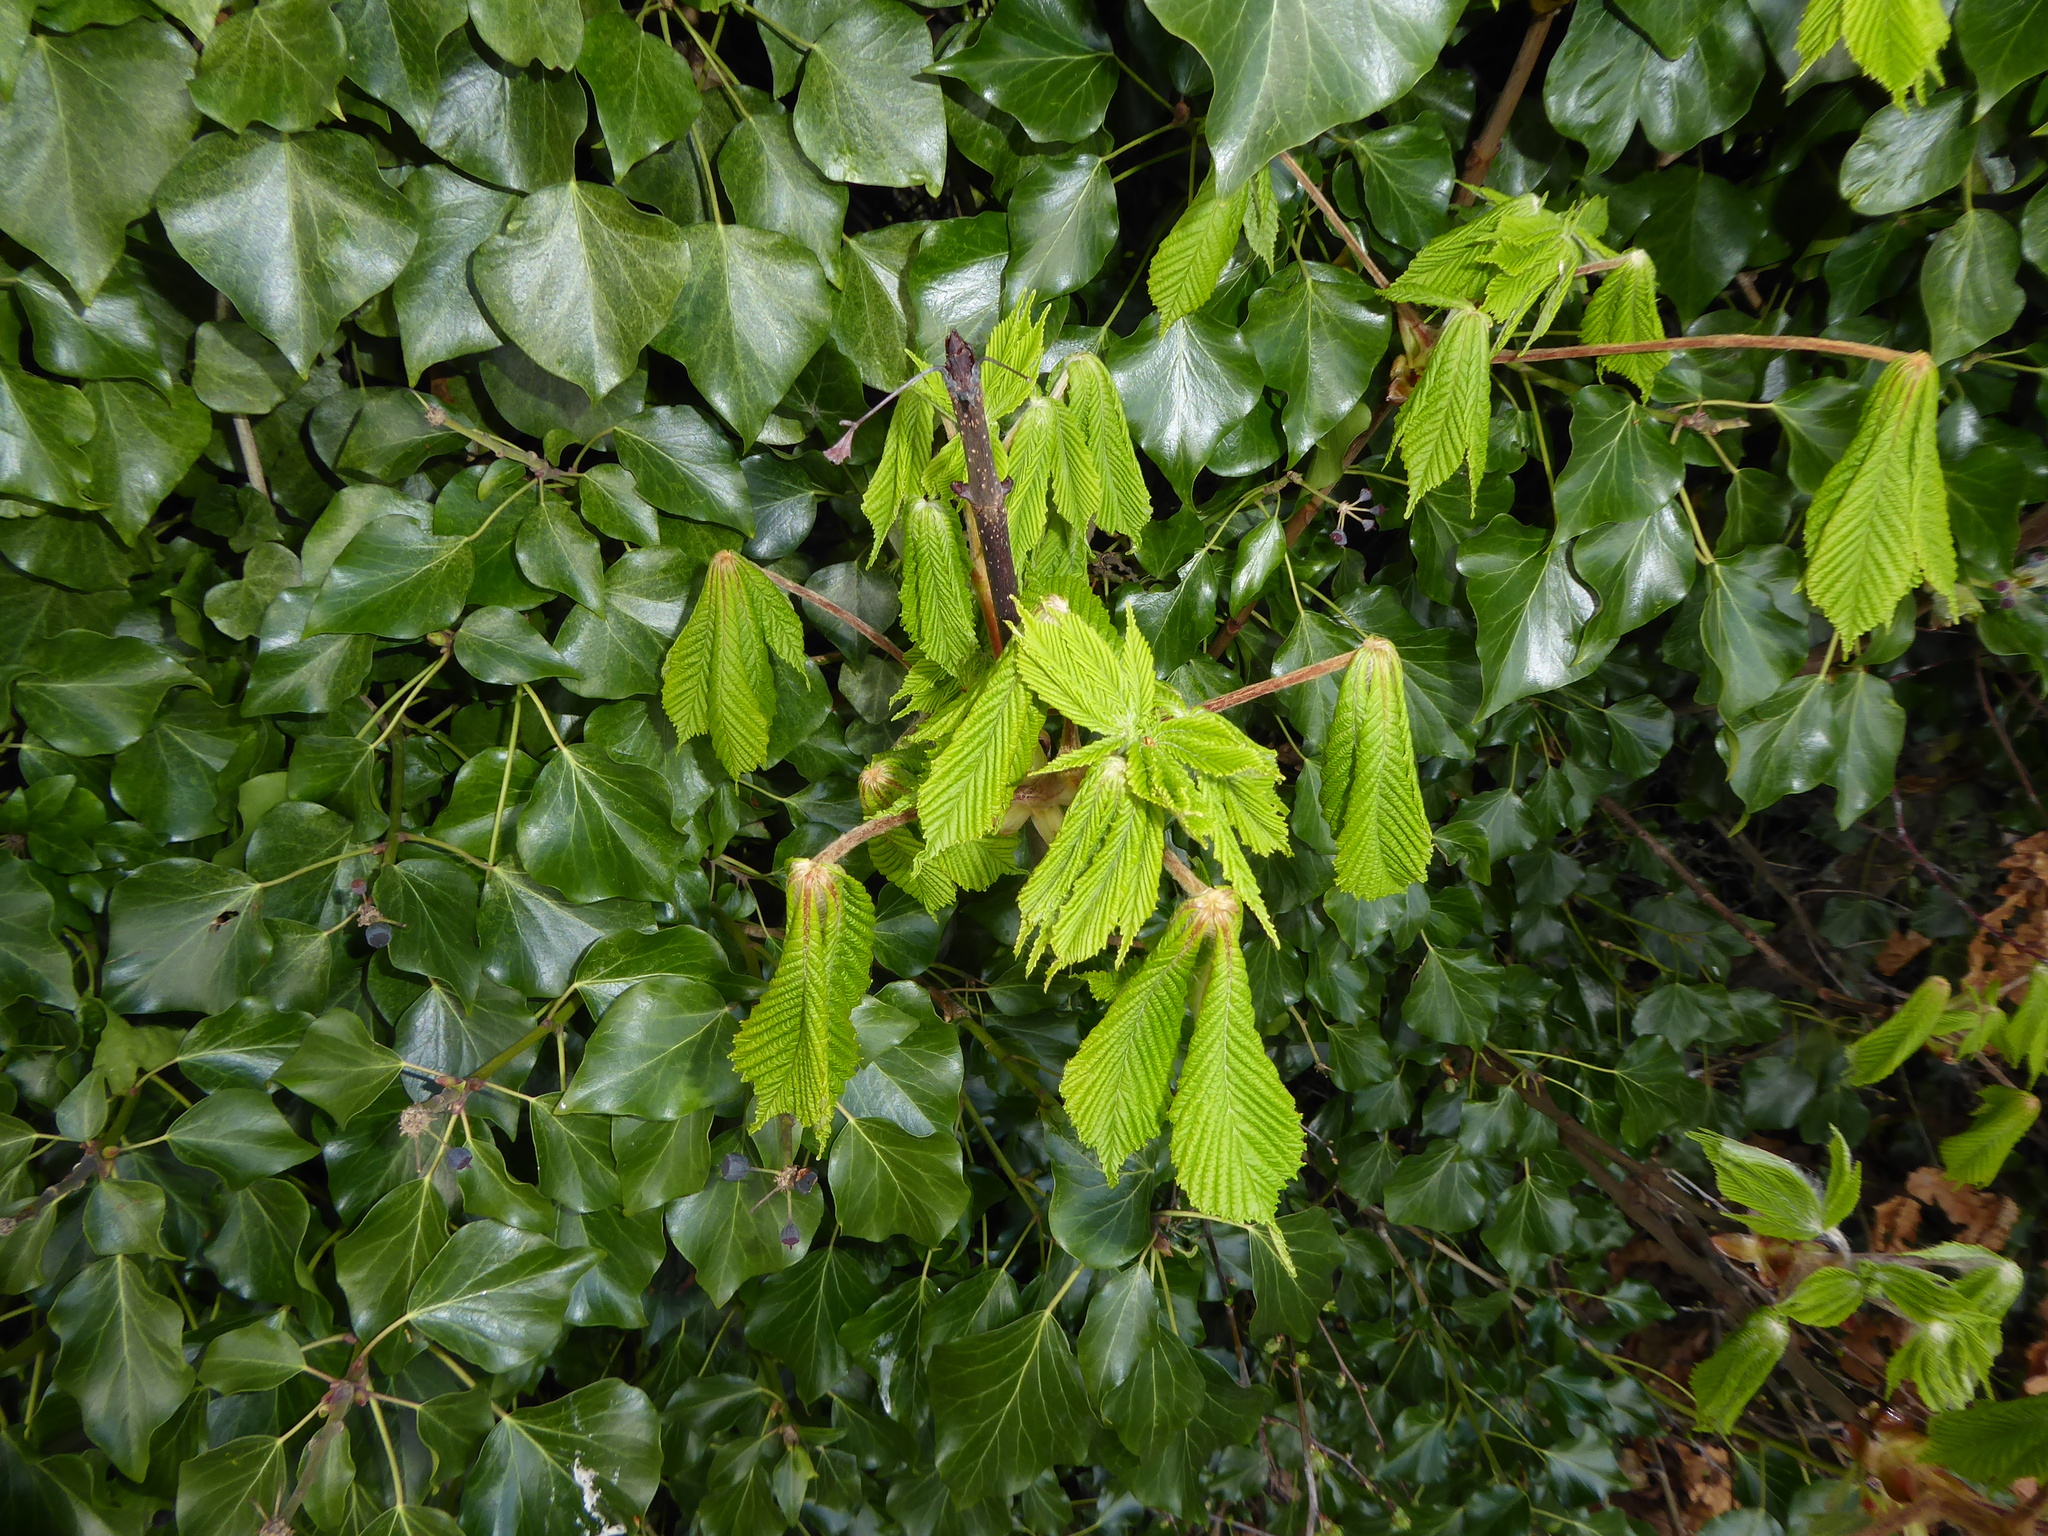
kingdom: Plantae
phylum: Tracheophyta
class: Magnoliopsida
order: Sapindales
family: Sapindaceae
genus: Aesculus
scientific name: Aesculus hippocastanum
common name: Horse-chestnut
